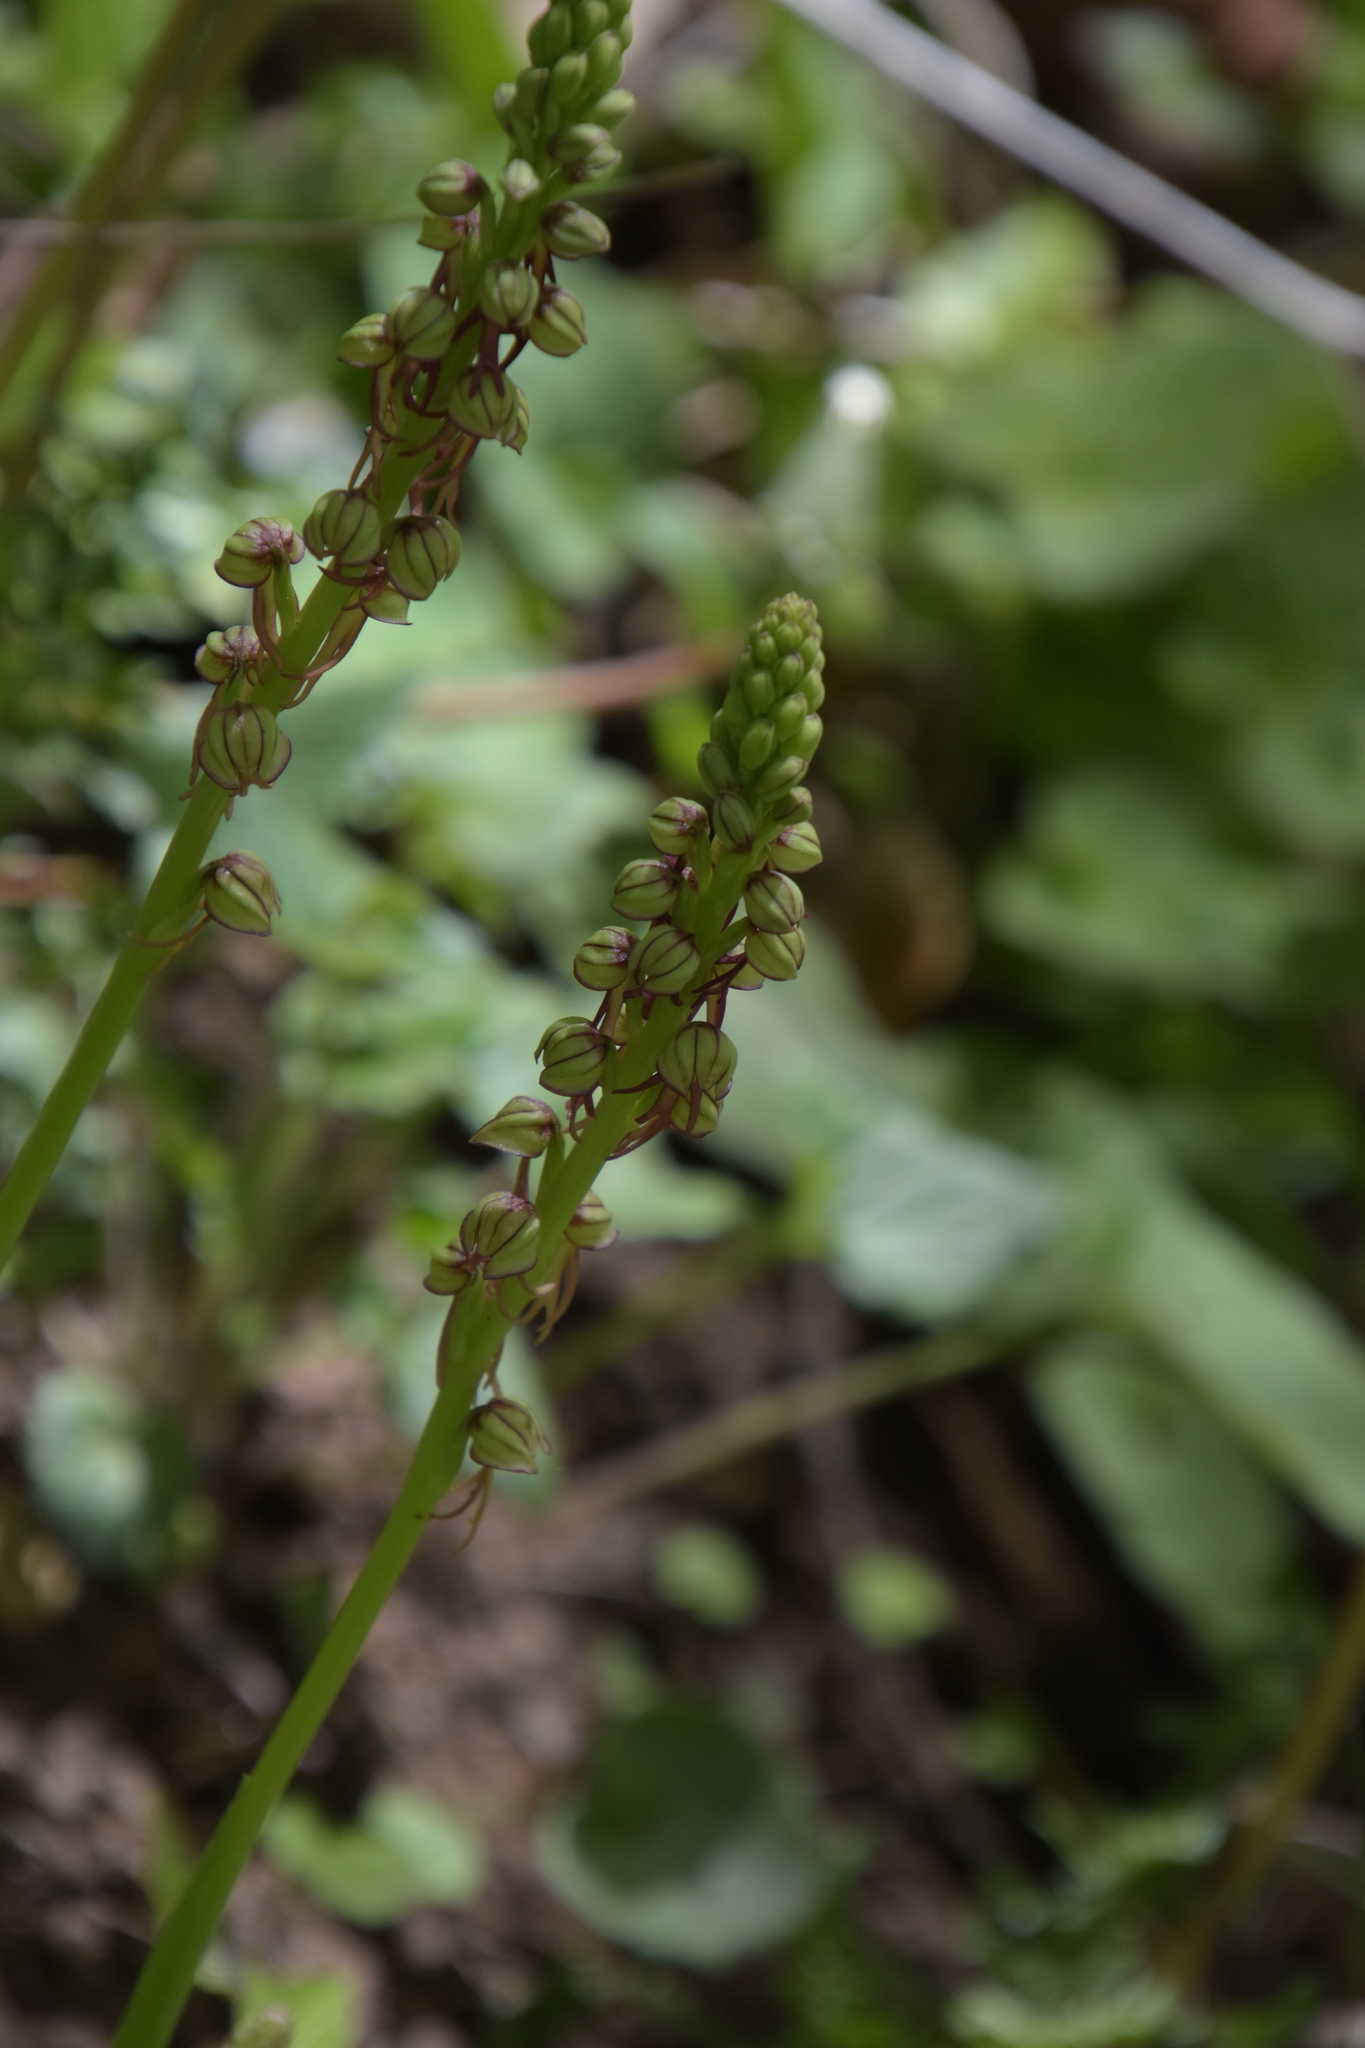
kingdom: Plantae
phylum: Tracheophyta
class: Liliopsida
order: Asparagales
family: Orchidaceae
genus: Orchis
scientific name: Orchis anthropophora
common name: Man orchid
